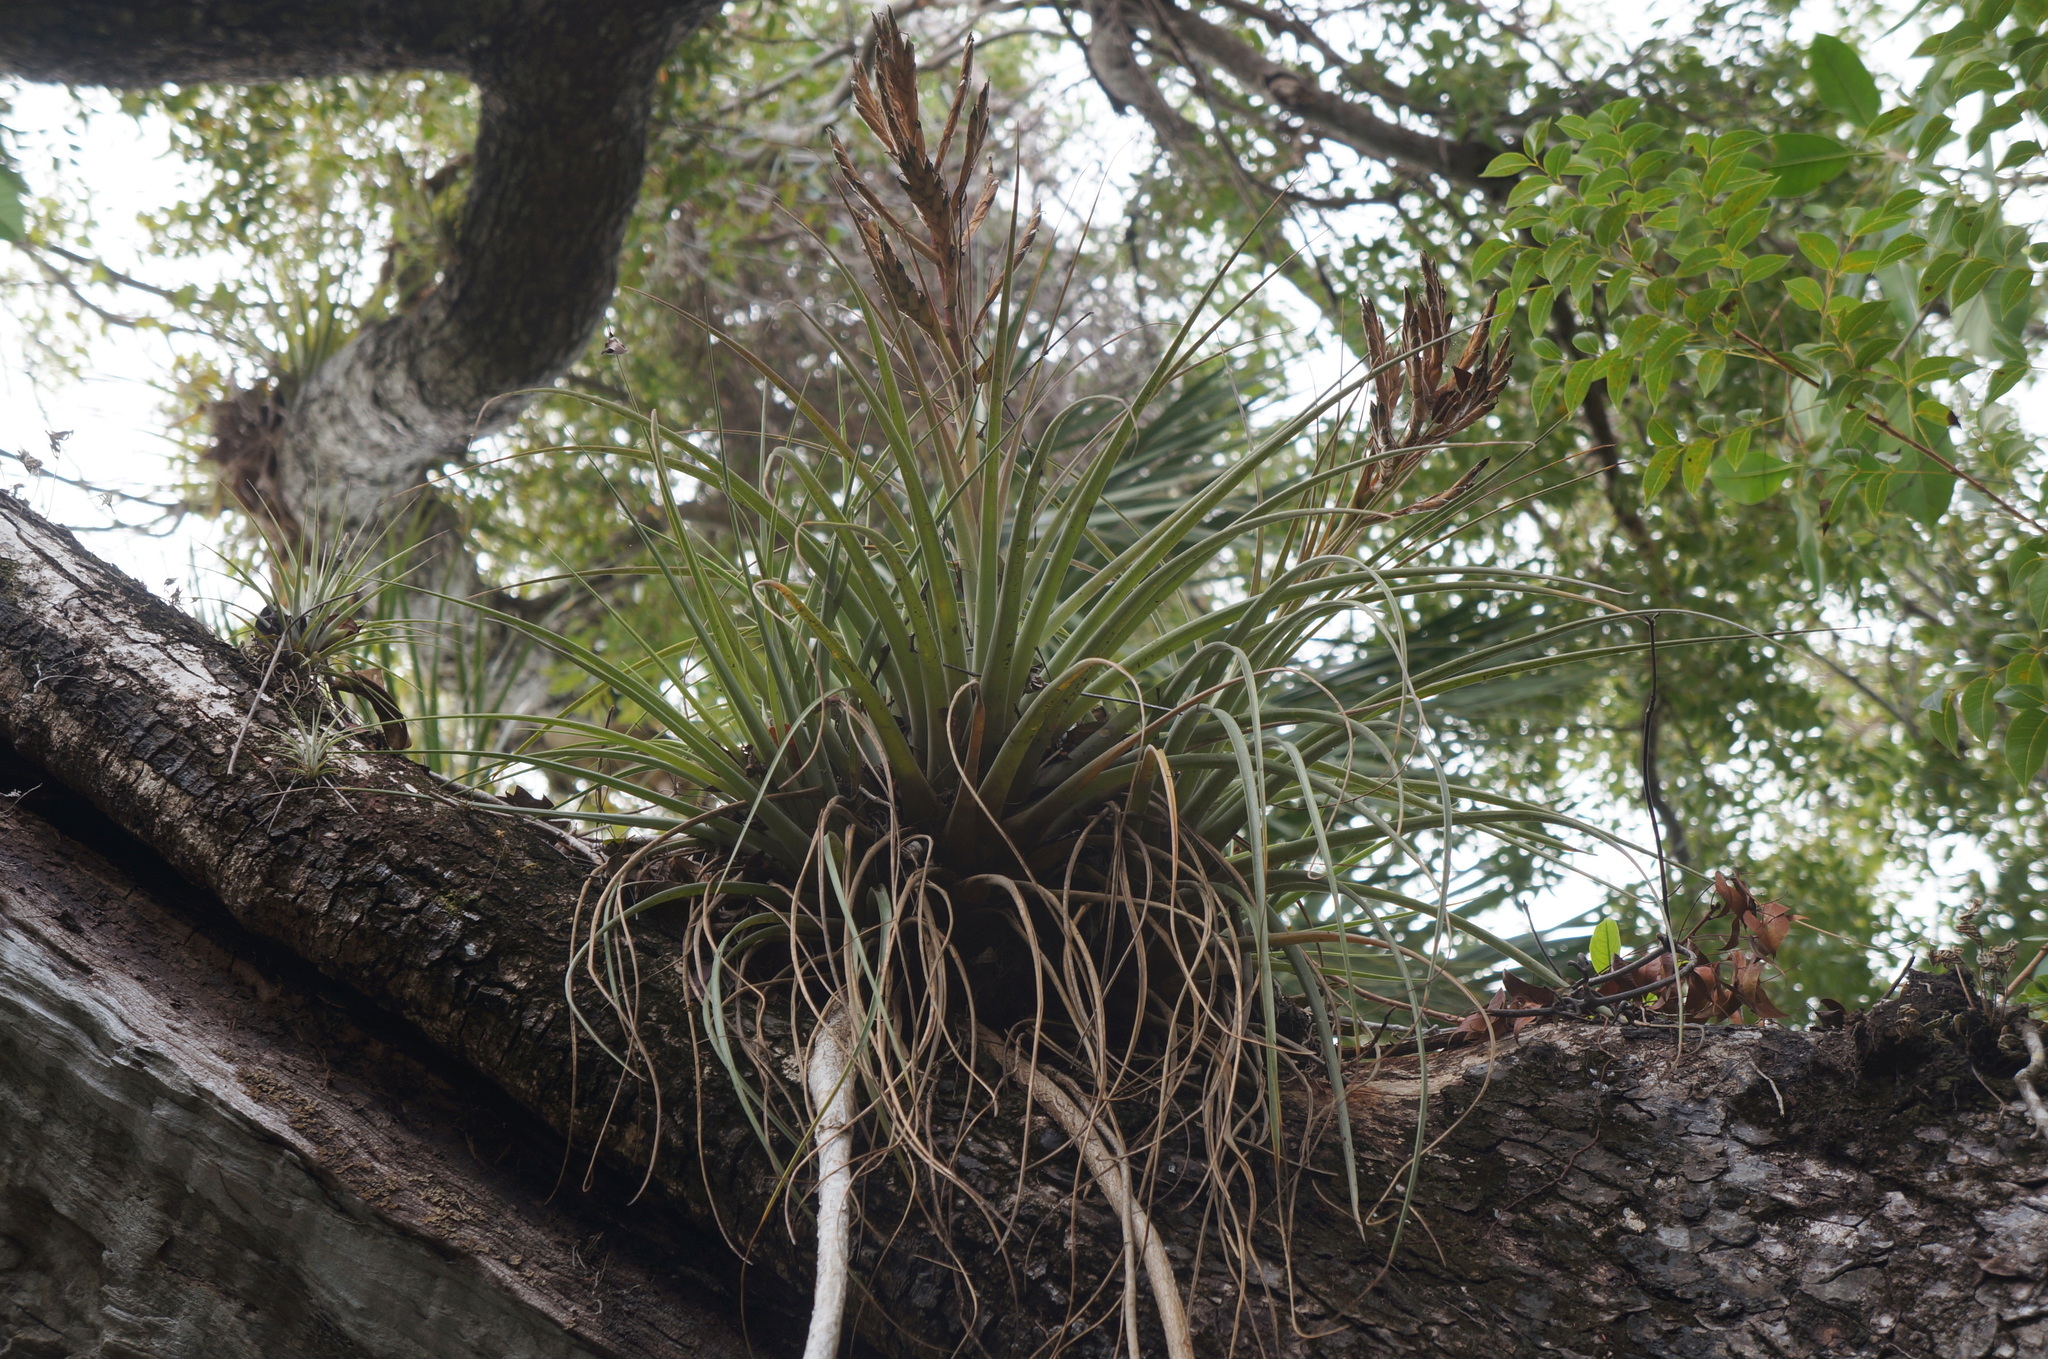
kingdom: Plantae
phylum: Tracheophyta
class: Liliopsida
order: Poales
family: Bromeliaceae
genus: Tillandsia
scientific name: Tillandsia fasciculata
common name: Giant airplant
